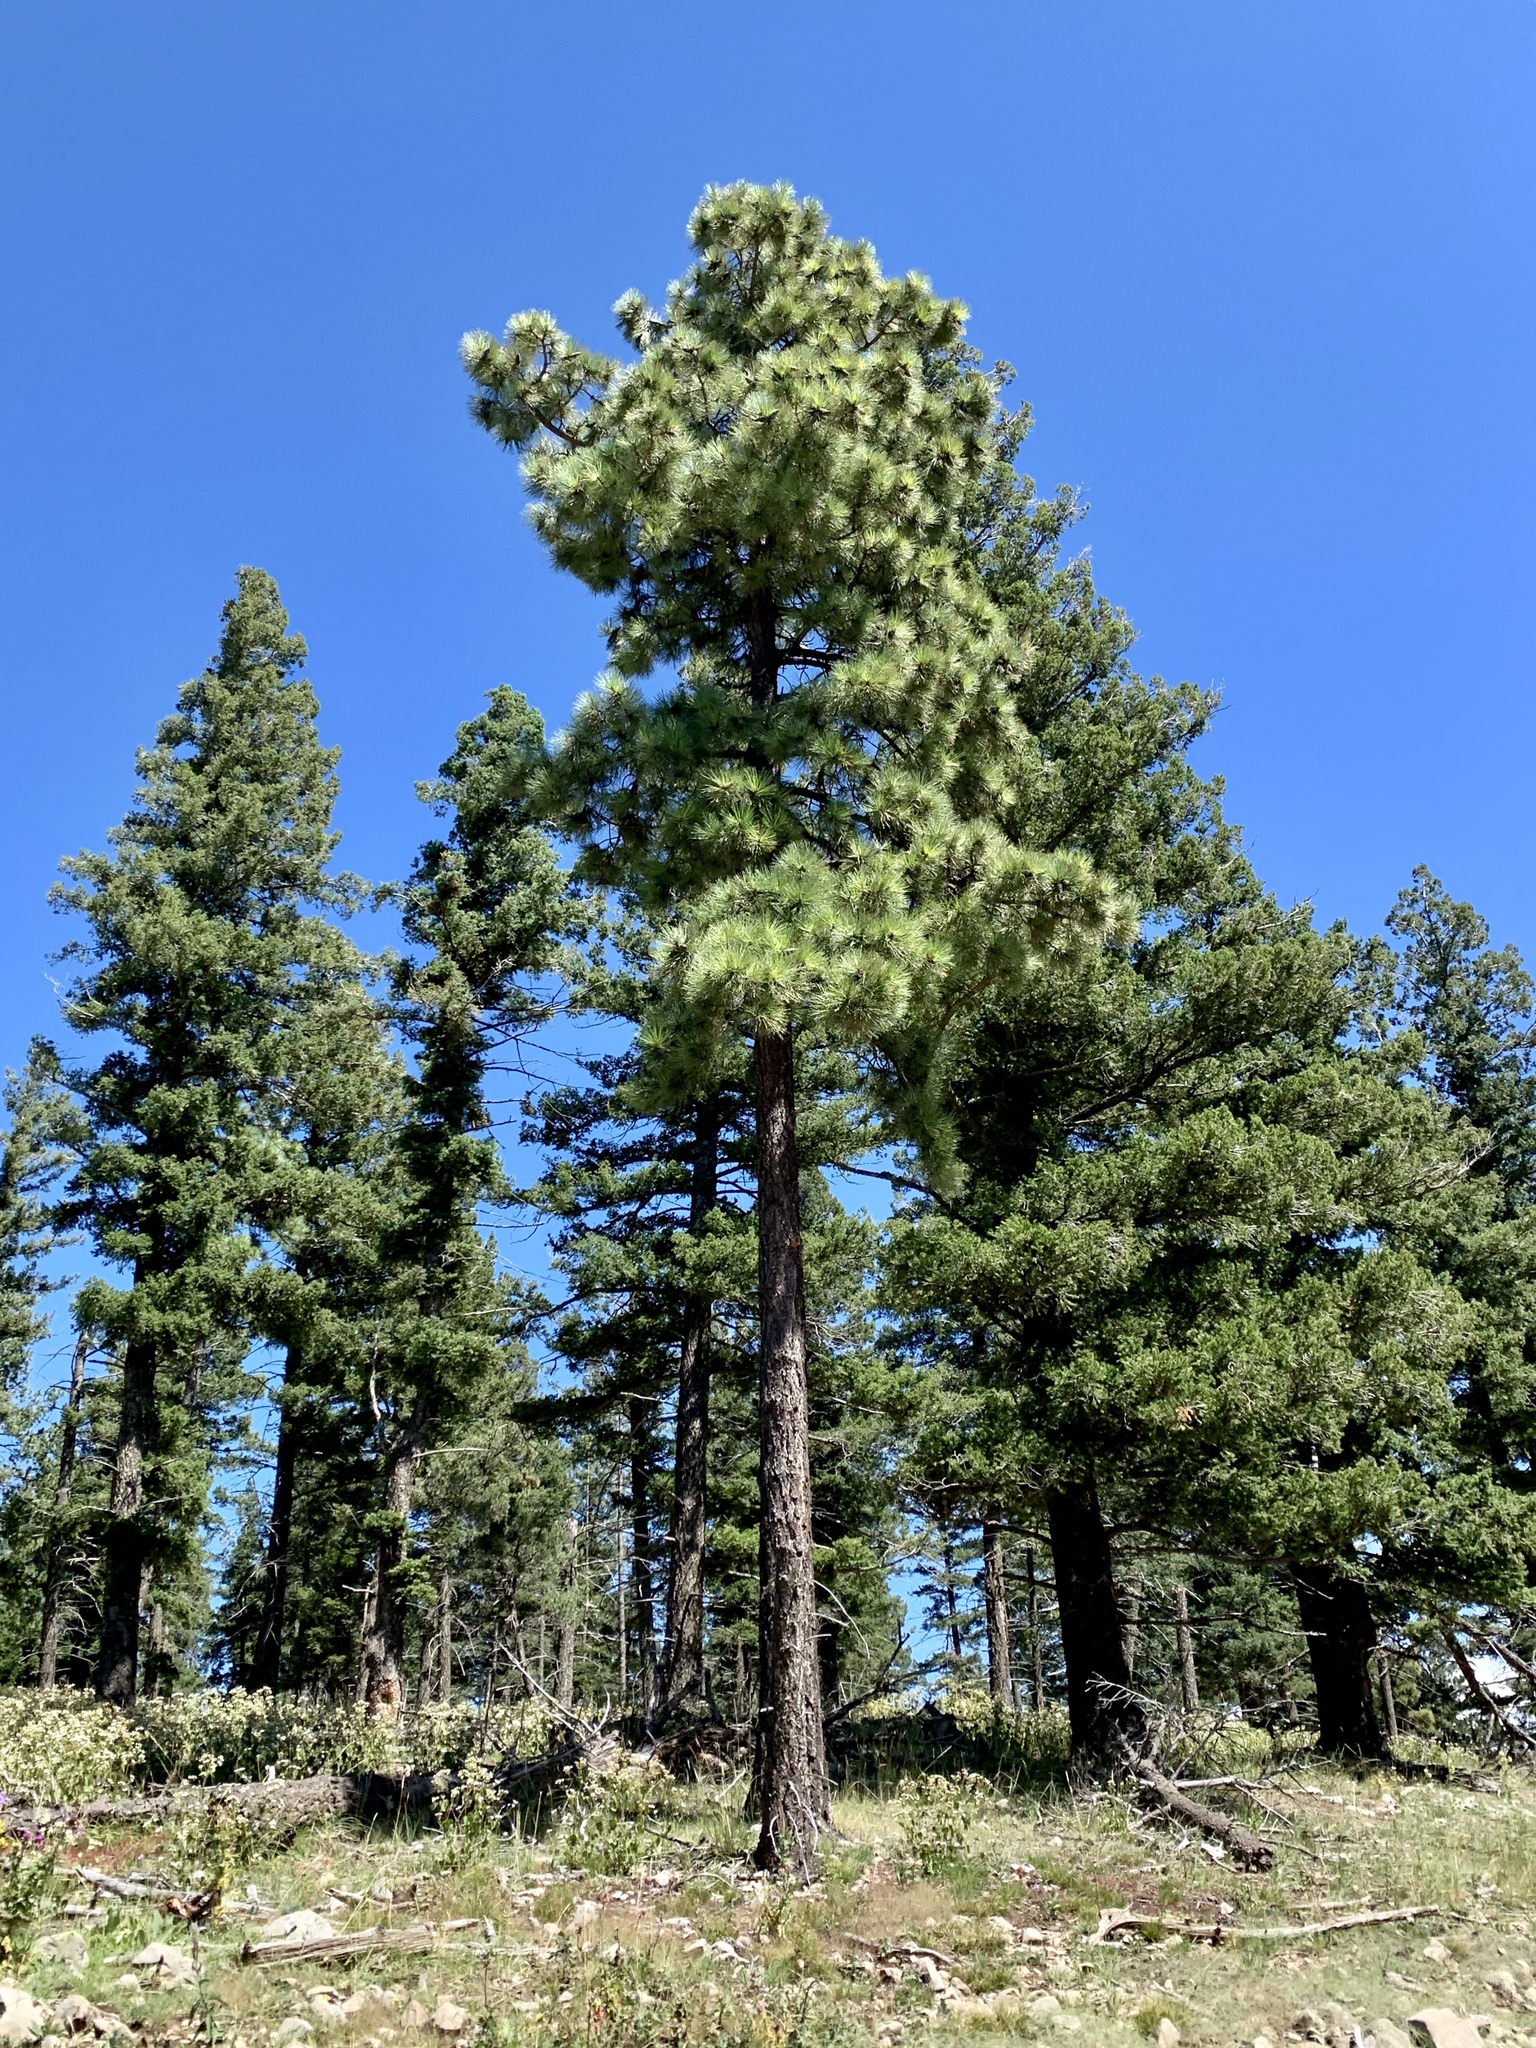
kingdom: Plantae
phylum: Tracheophyta
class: Pinopsida
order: Pinales
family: Pinaceae
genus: Pinus
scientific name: Pinus ponderosa
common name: Western yellow-pine
